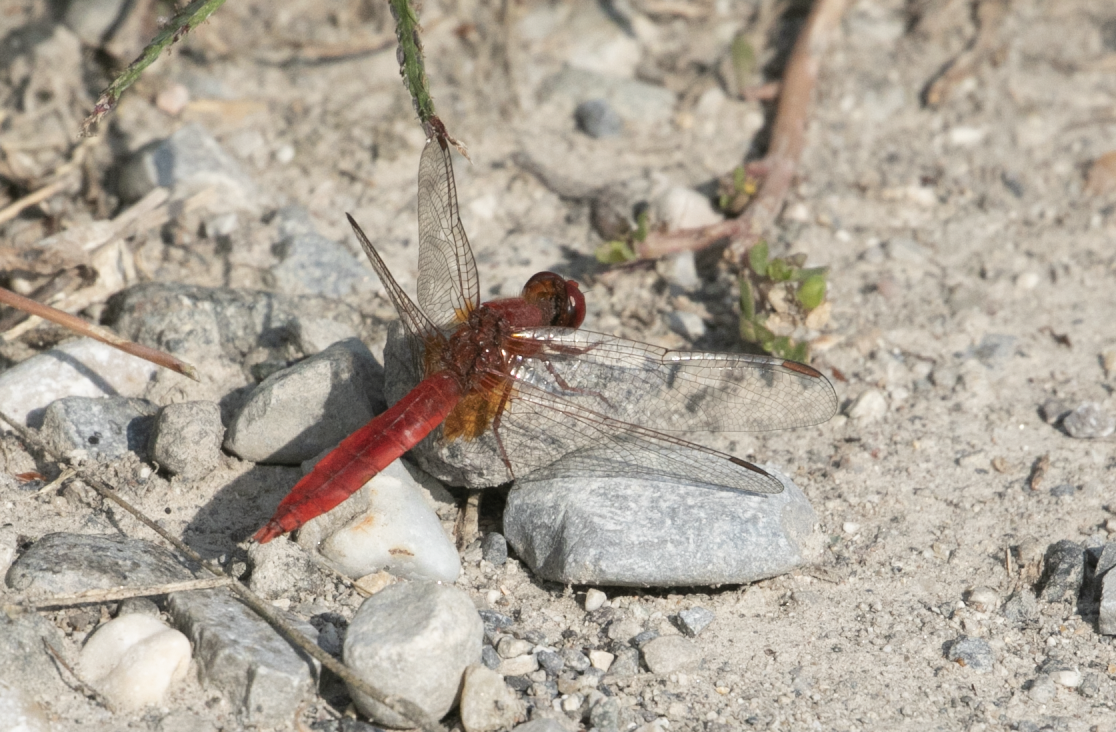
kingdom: Animalia
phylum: Arthropoda
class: Insecta
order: Odonata
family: Libellulidae
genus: Crocothemis
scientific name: Crocothemis erythraea
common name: Scarlet dragonfly
